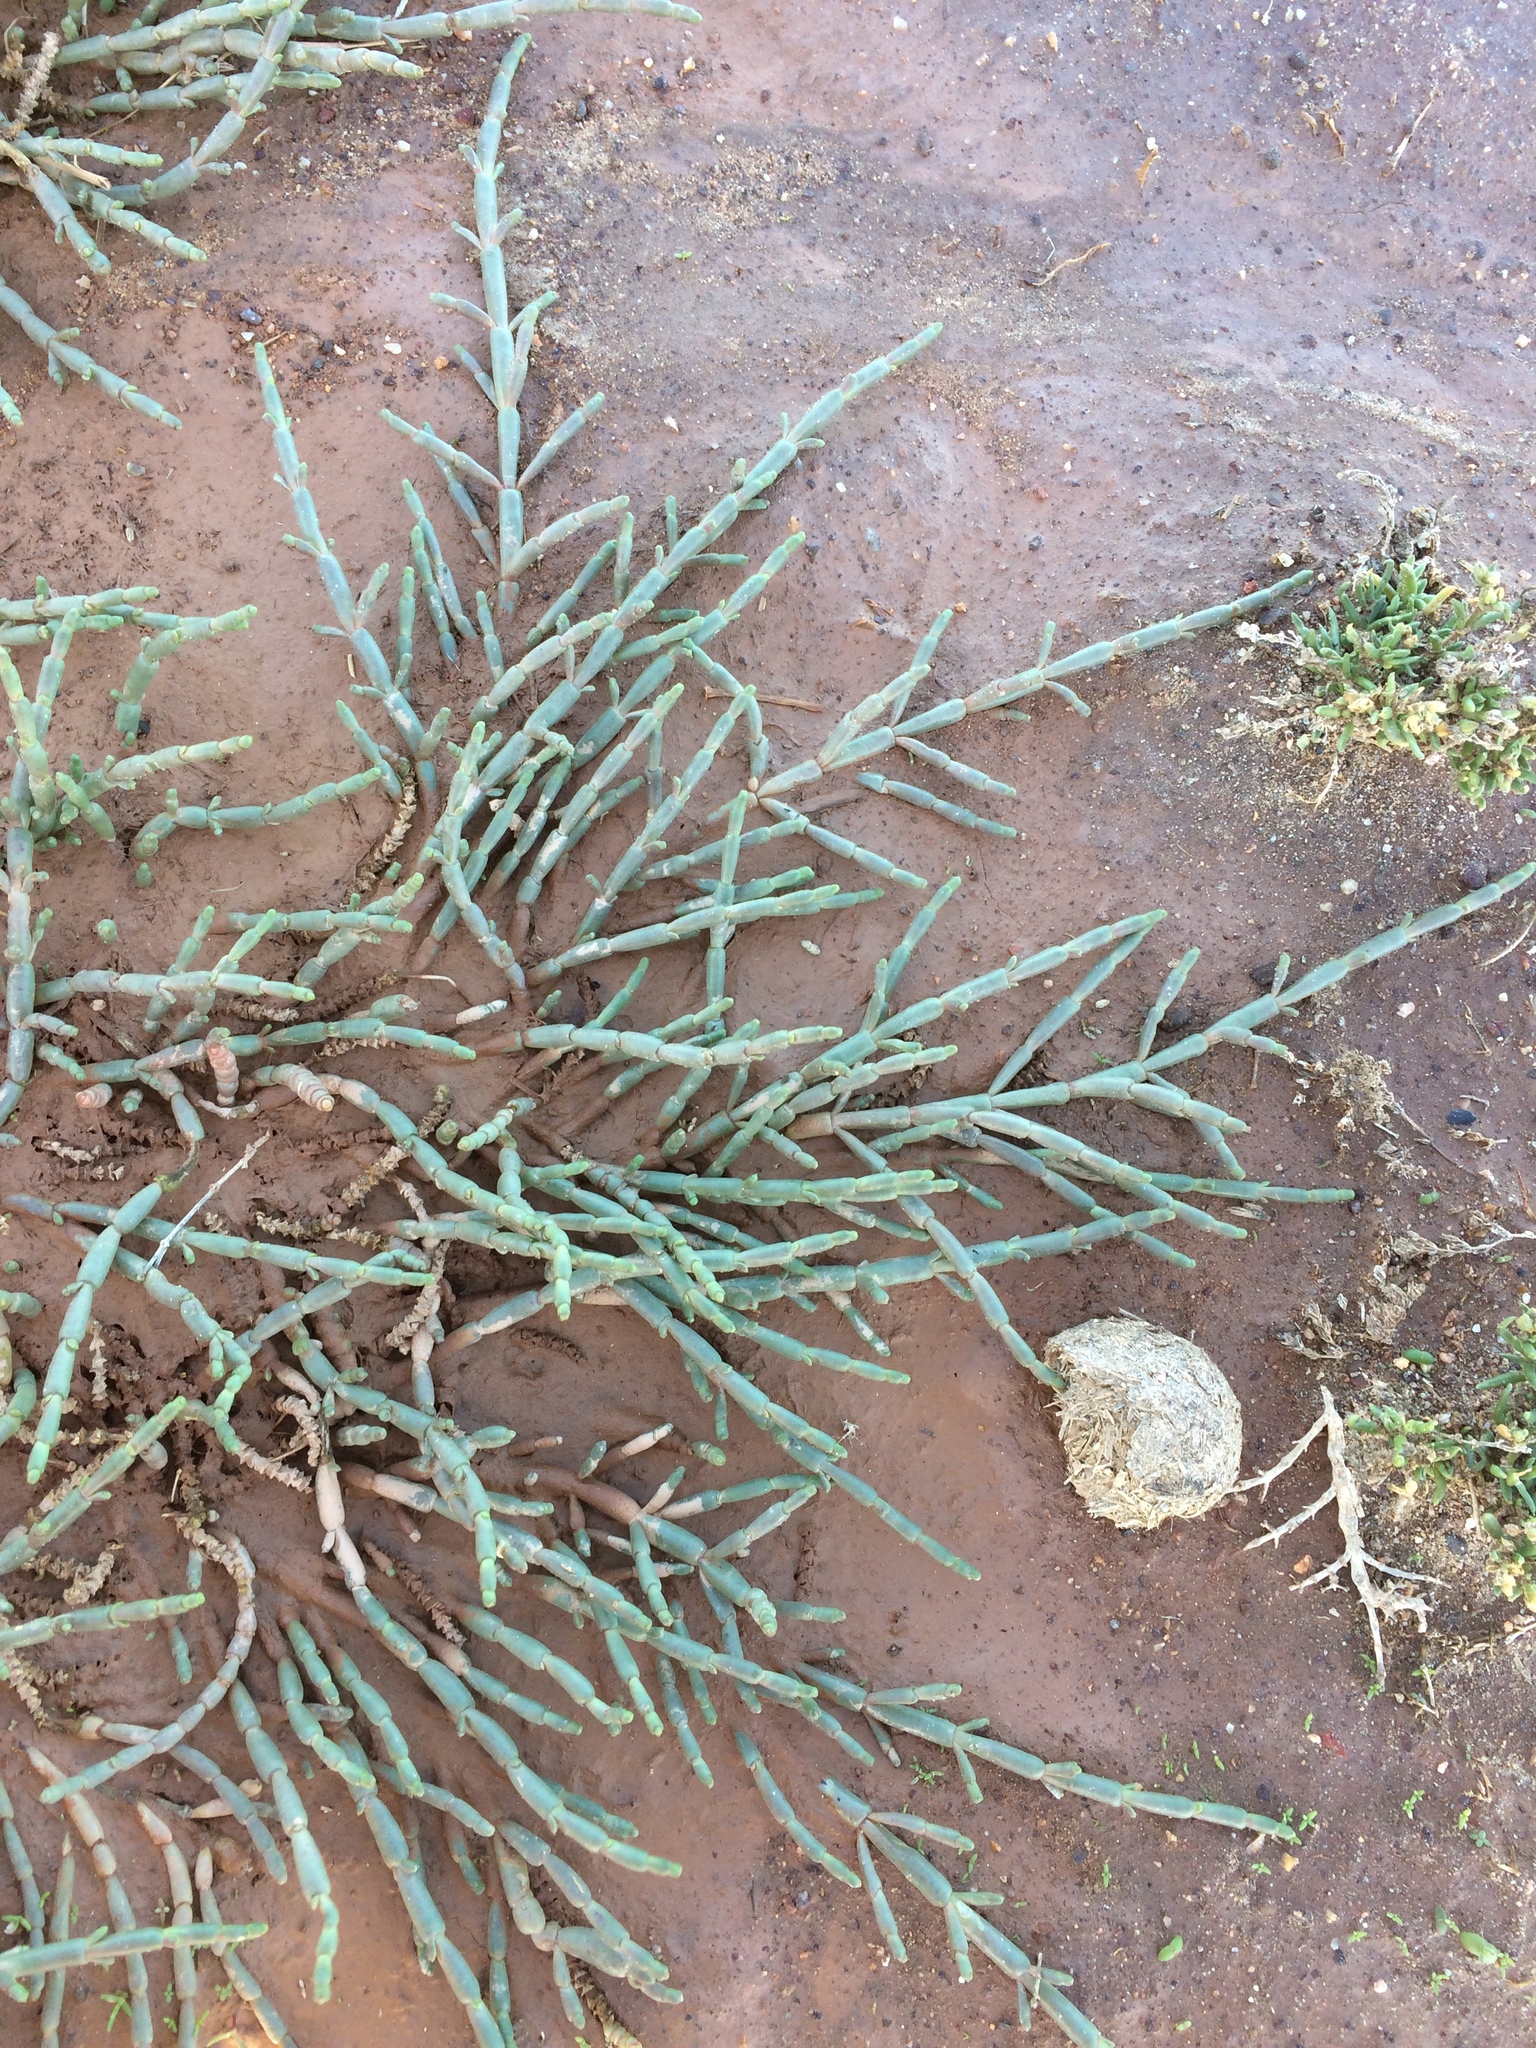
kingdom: Plantae
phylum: Tracheophyta
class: Magnoliopsida
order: Caryophyllales
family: Amaranthaceae
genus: Salicornia
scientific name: Salicornia natalensis
